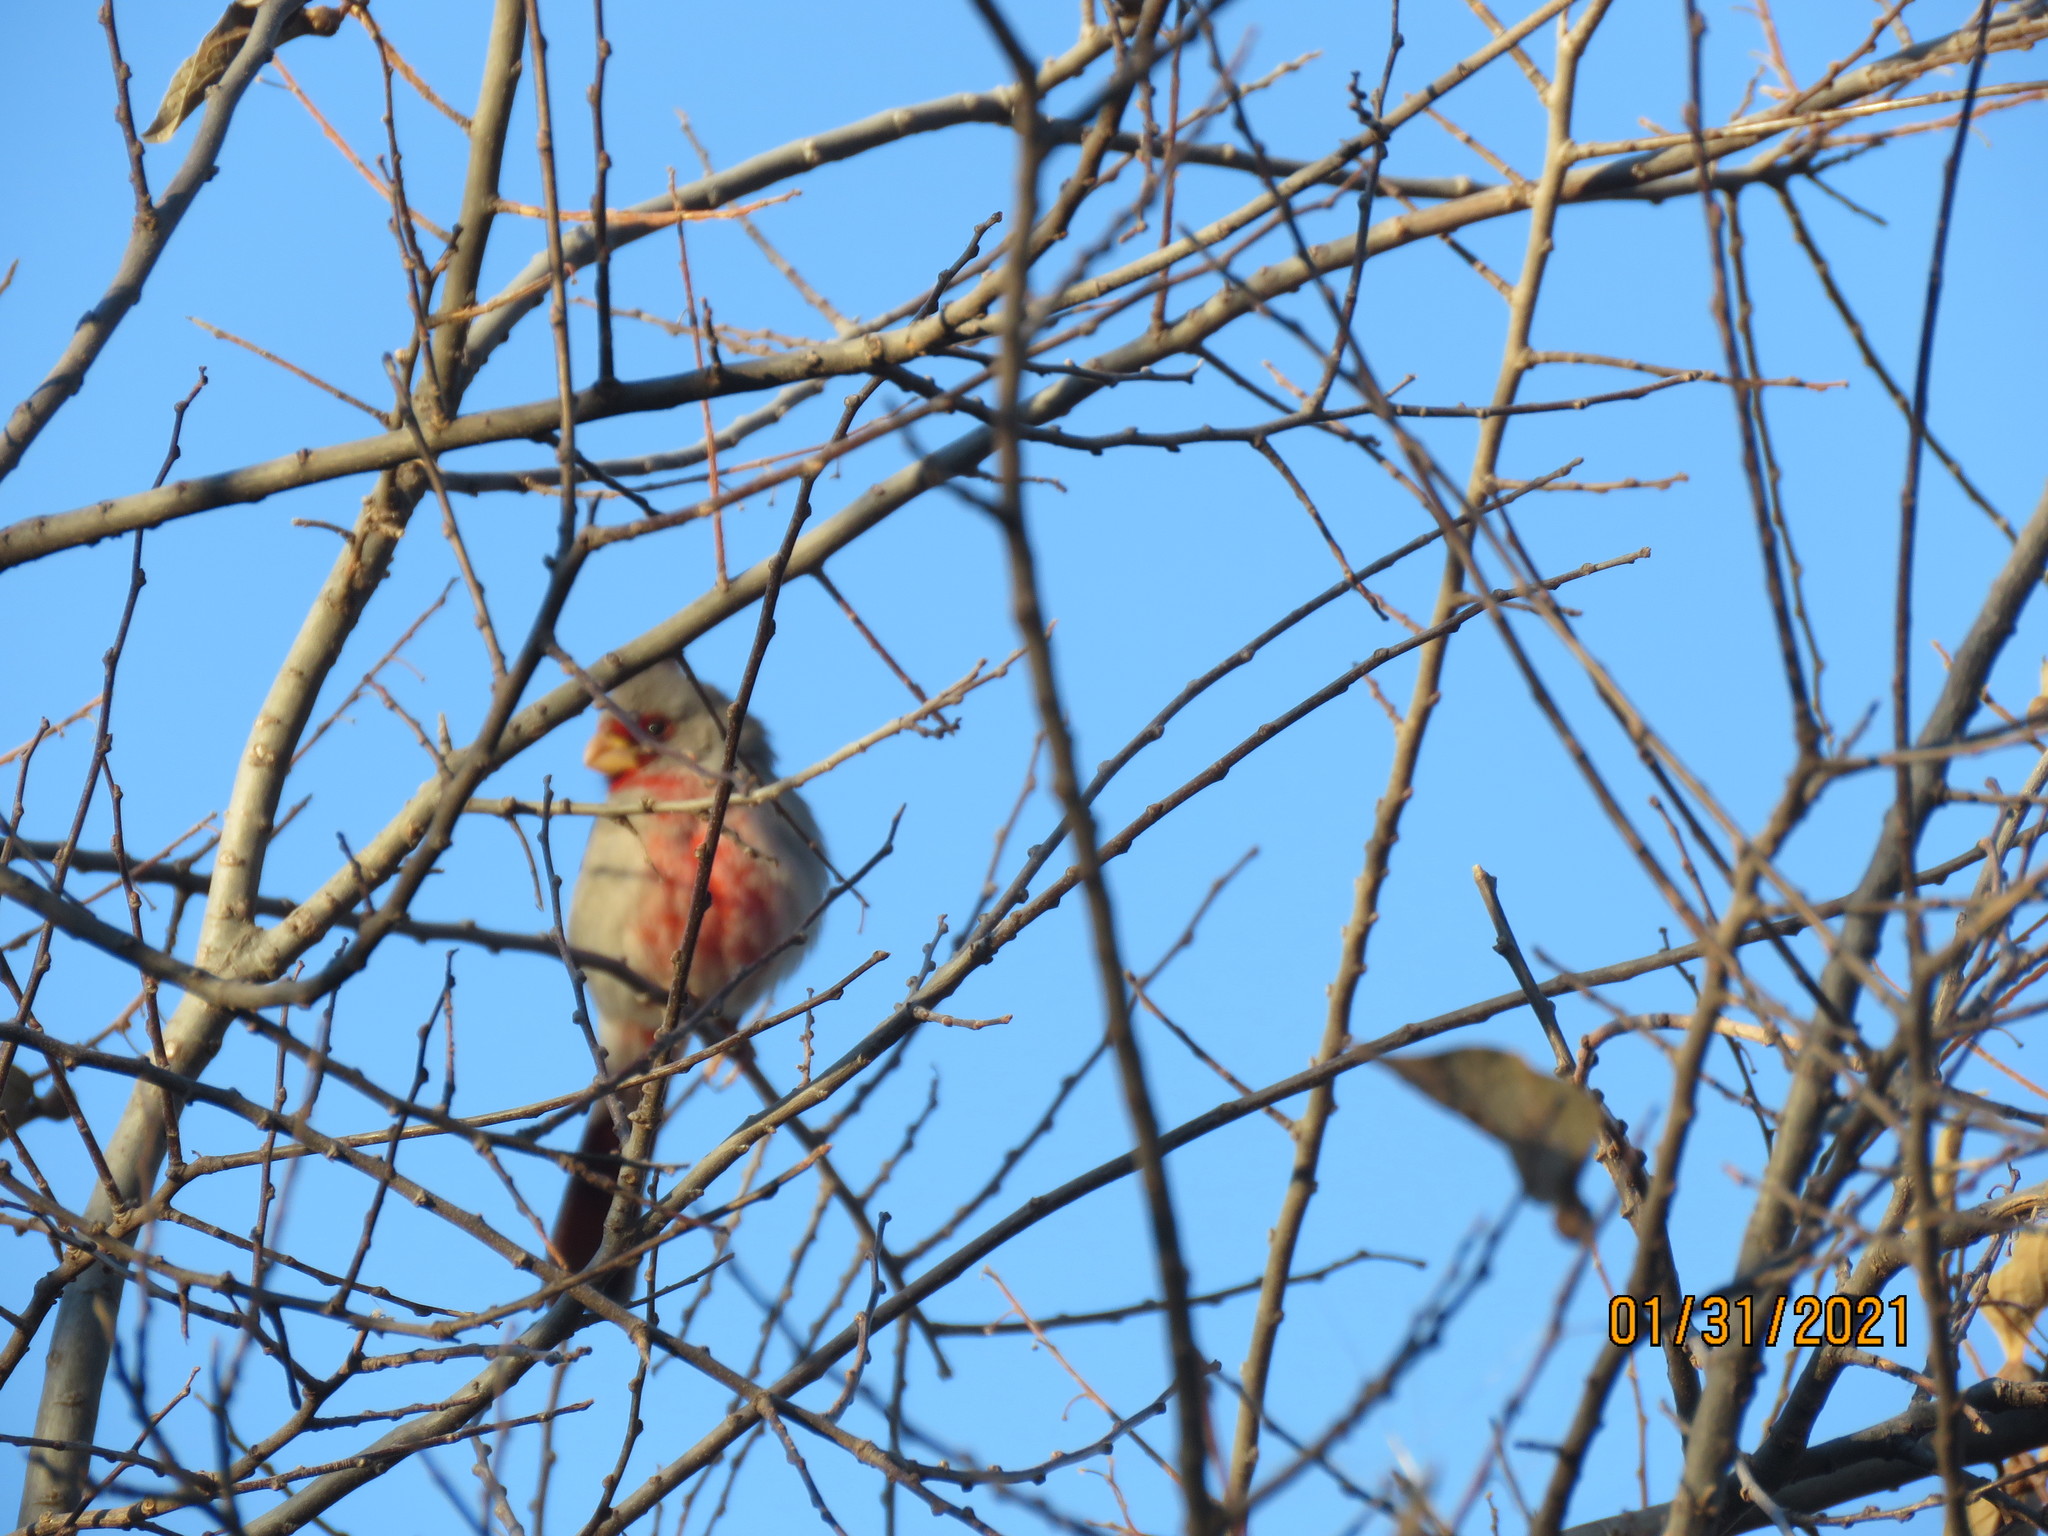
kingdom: Animalia
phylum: Chordata
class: Aves
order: Passeriformes
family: Cardinalidae
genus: Cardinalis
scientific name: Cardinalis sinuatus
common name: Pyrrhuloxia
